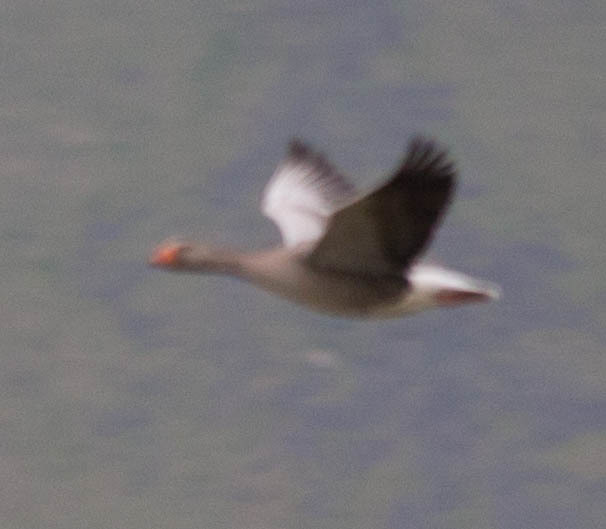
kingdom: Animalia
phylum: Chordata
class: Aves
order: Anseriformes
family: Anatidae
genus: Anser
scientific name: Anser anser
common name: Greylag goose
